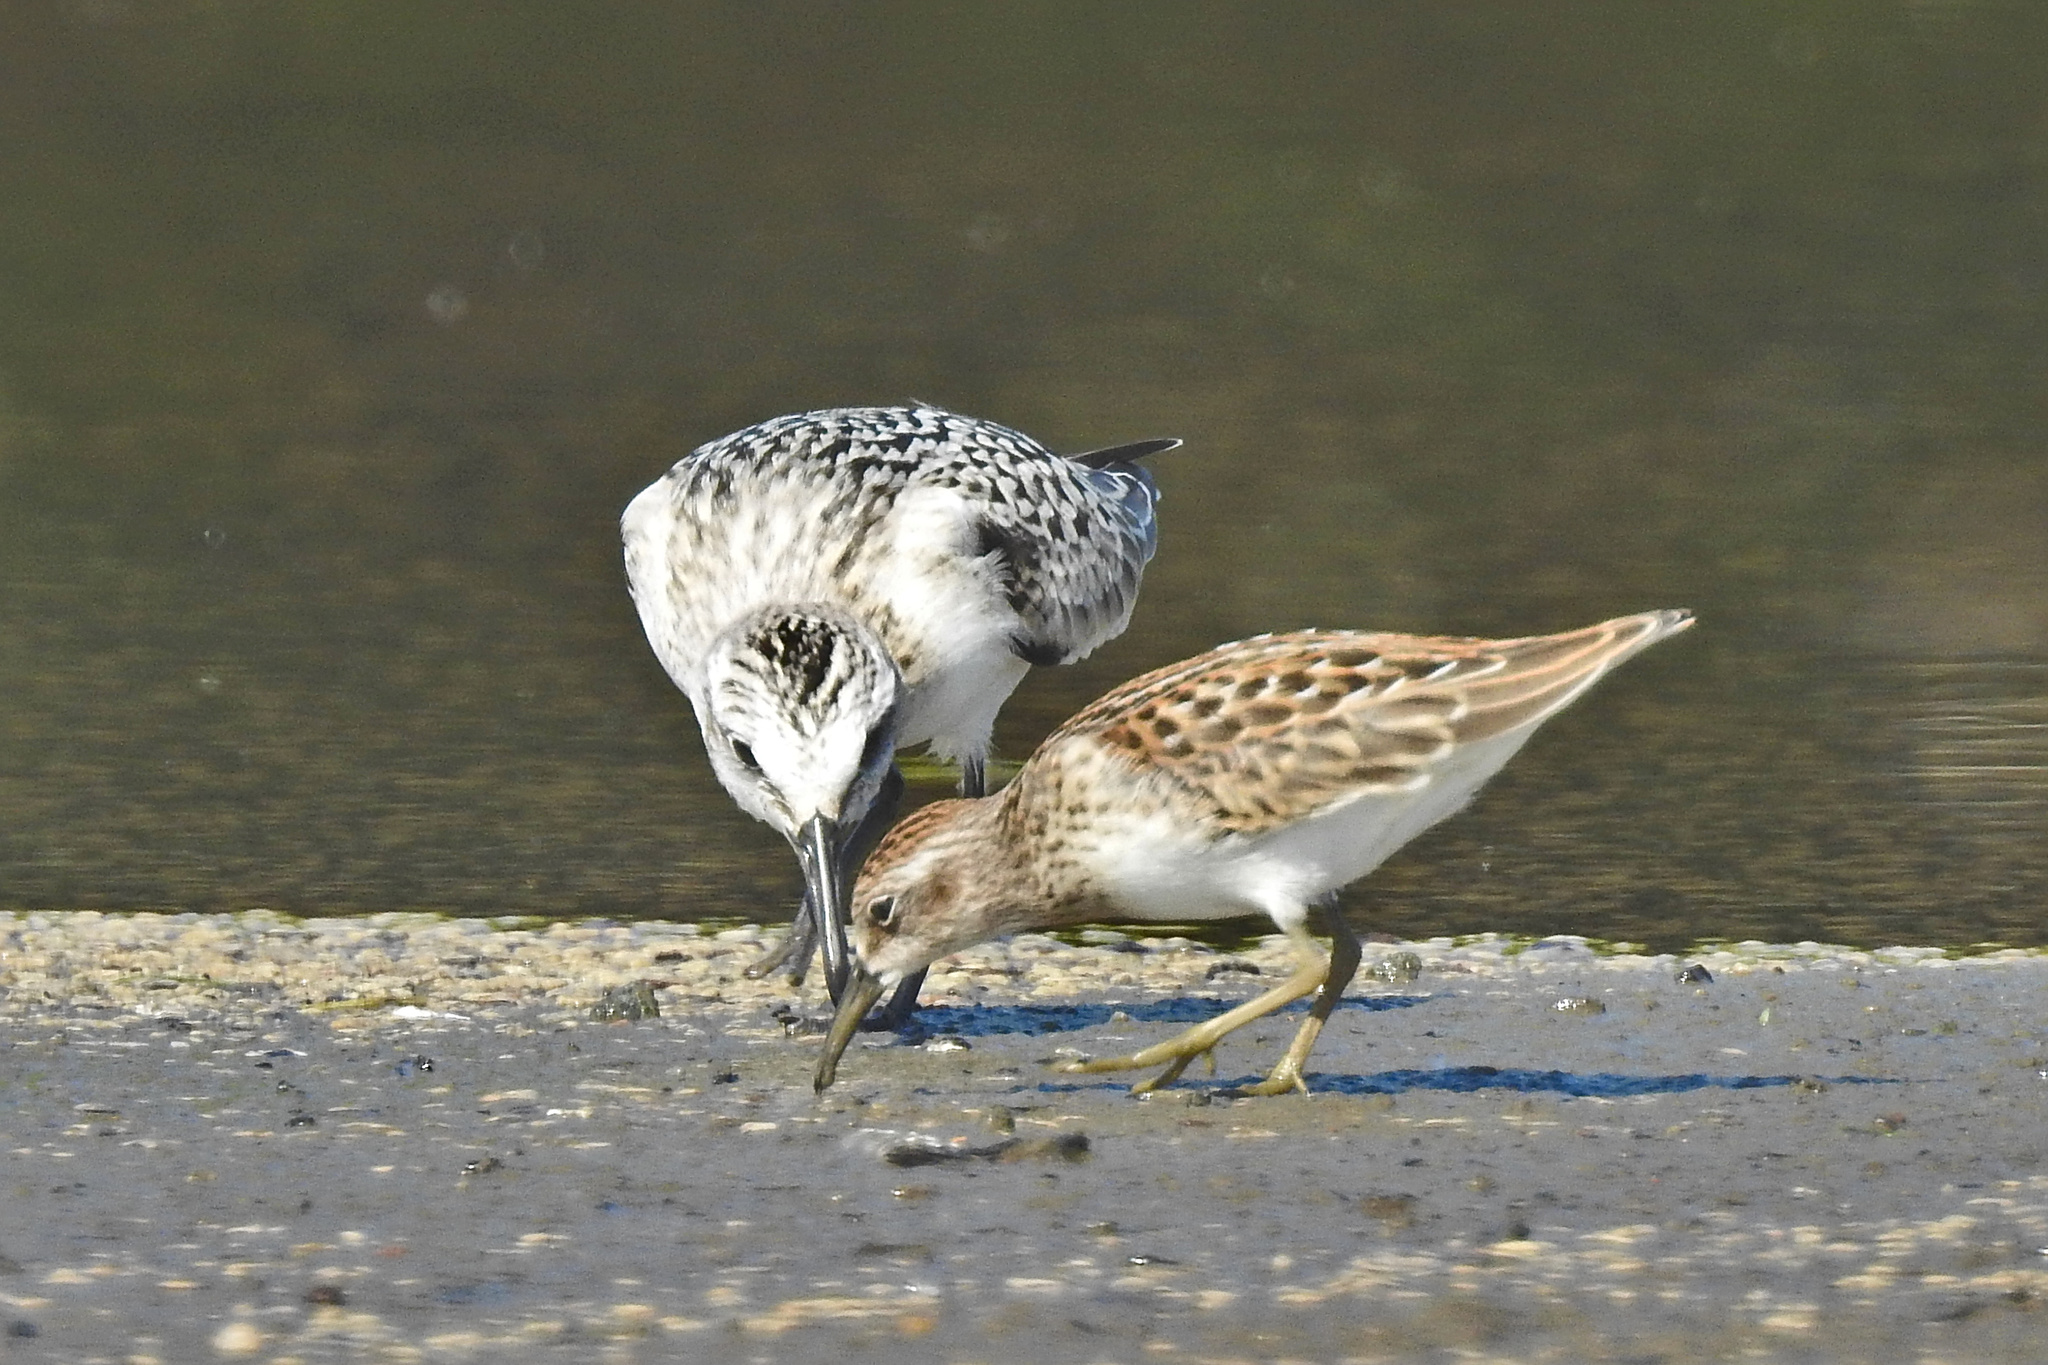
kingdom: Animalia
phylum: Chordata
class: Aves
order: Charadriiformes
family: Scolopacidae
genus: Calidris
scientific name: Calidris minutilla
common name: Least sandpiper
